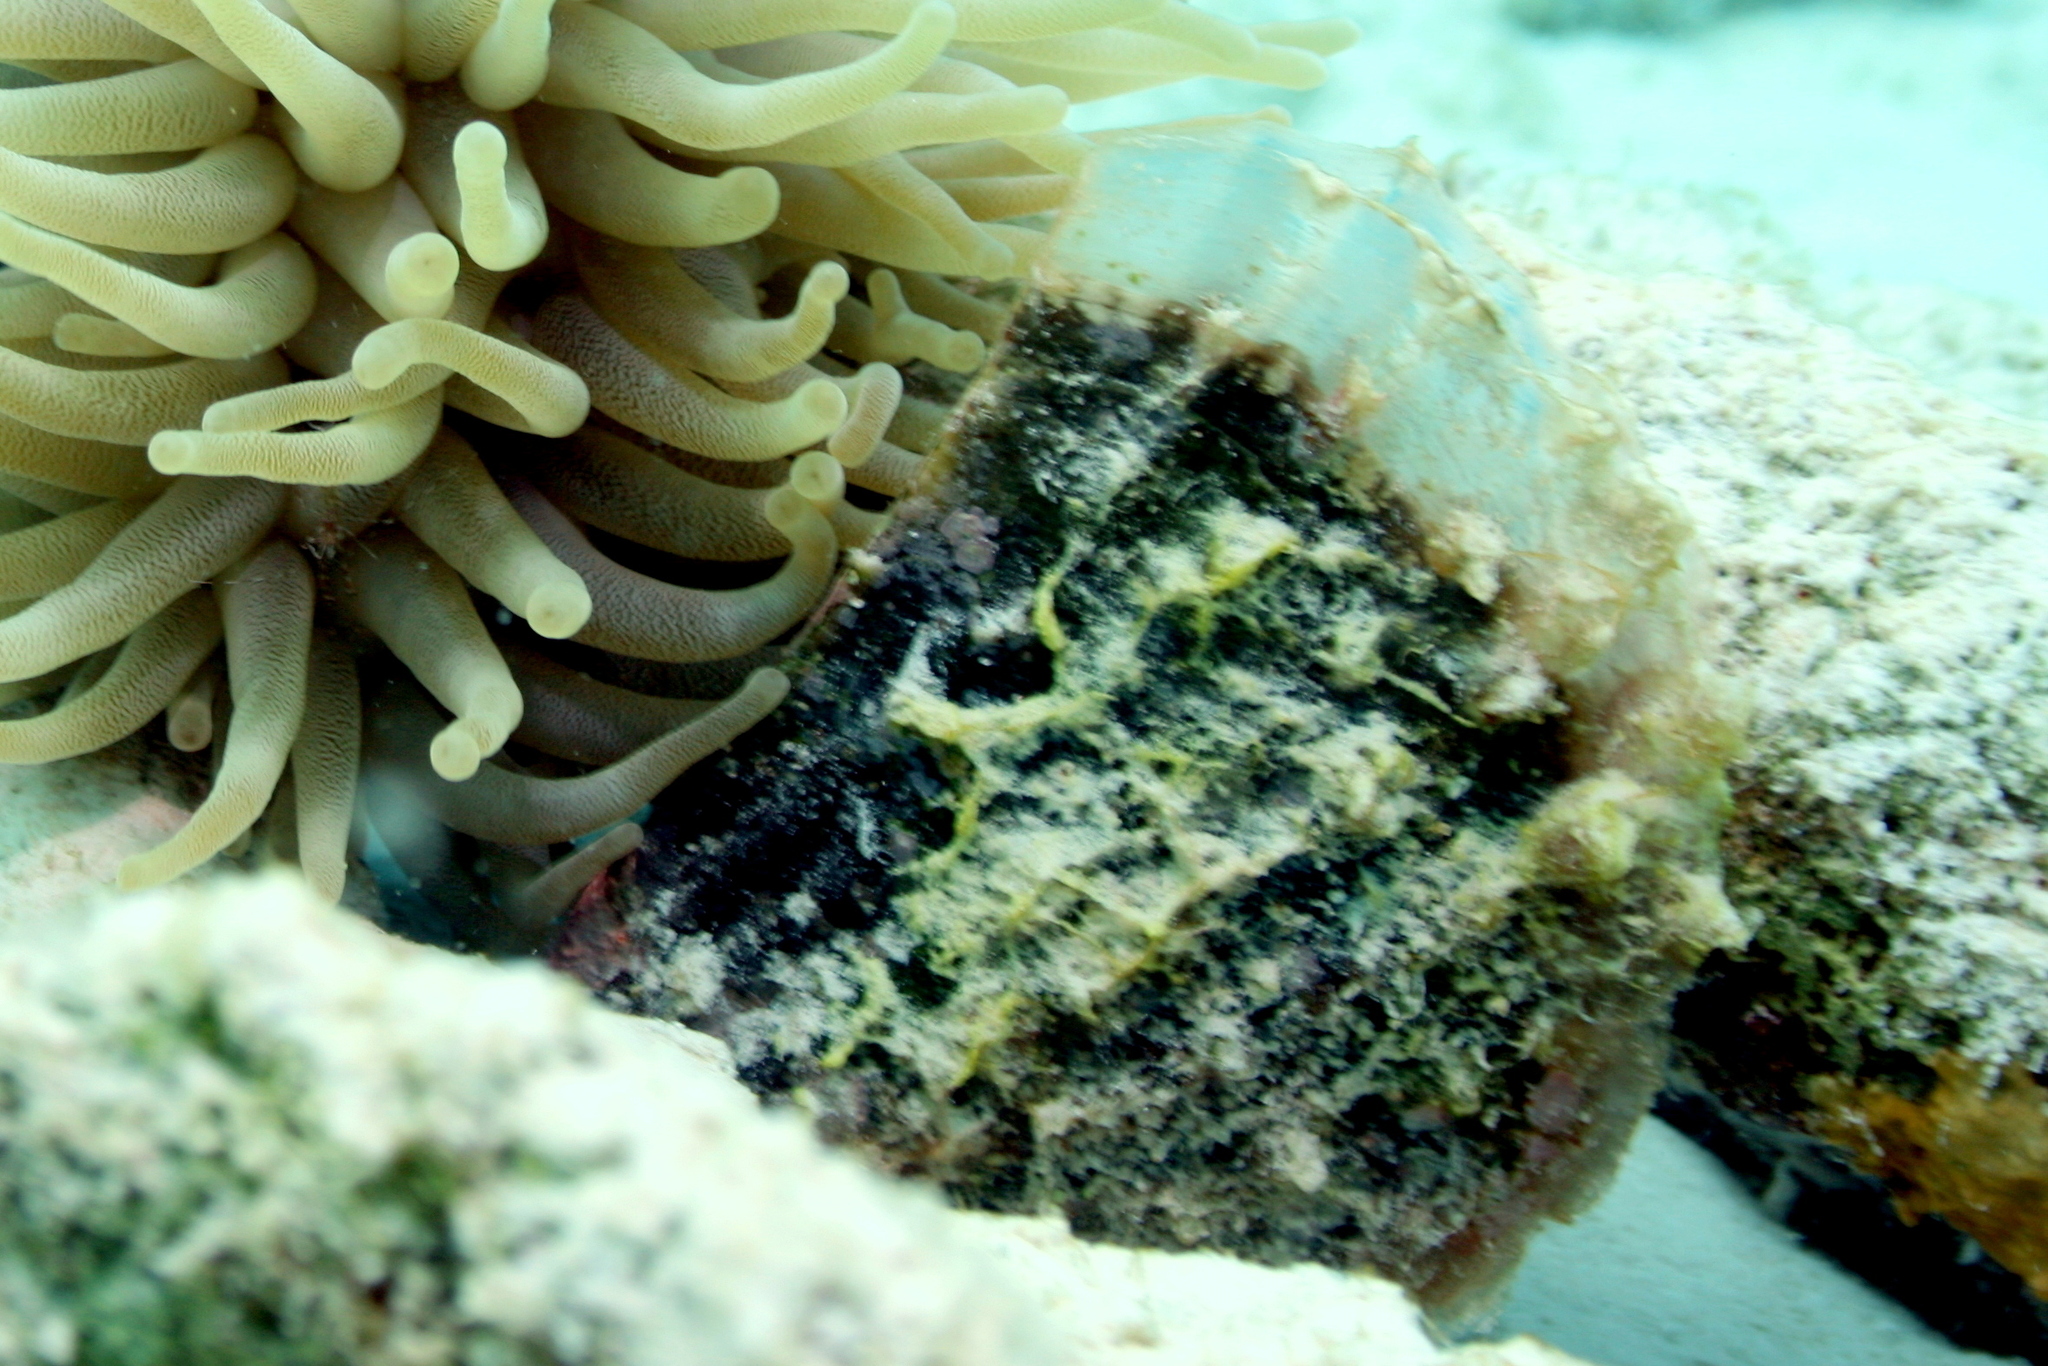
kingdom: Animalia
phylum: Mollusca
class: Bivalvia
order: Ostreida
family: Pinnidae
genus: Pinna
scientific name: Pinna carnea
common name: Amber penshell
